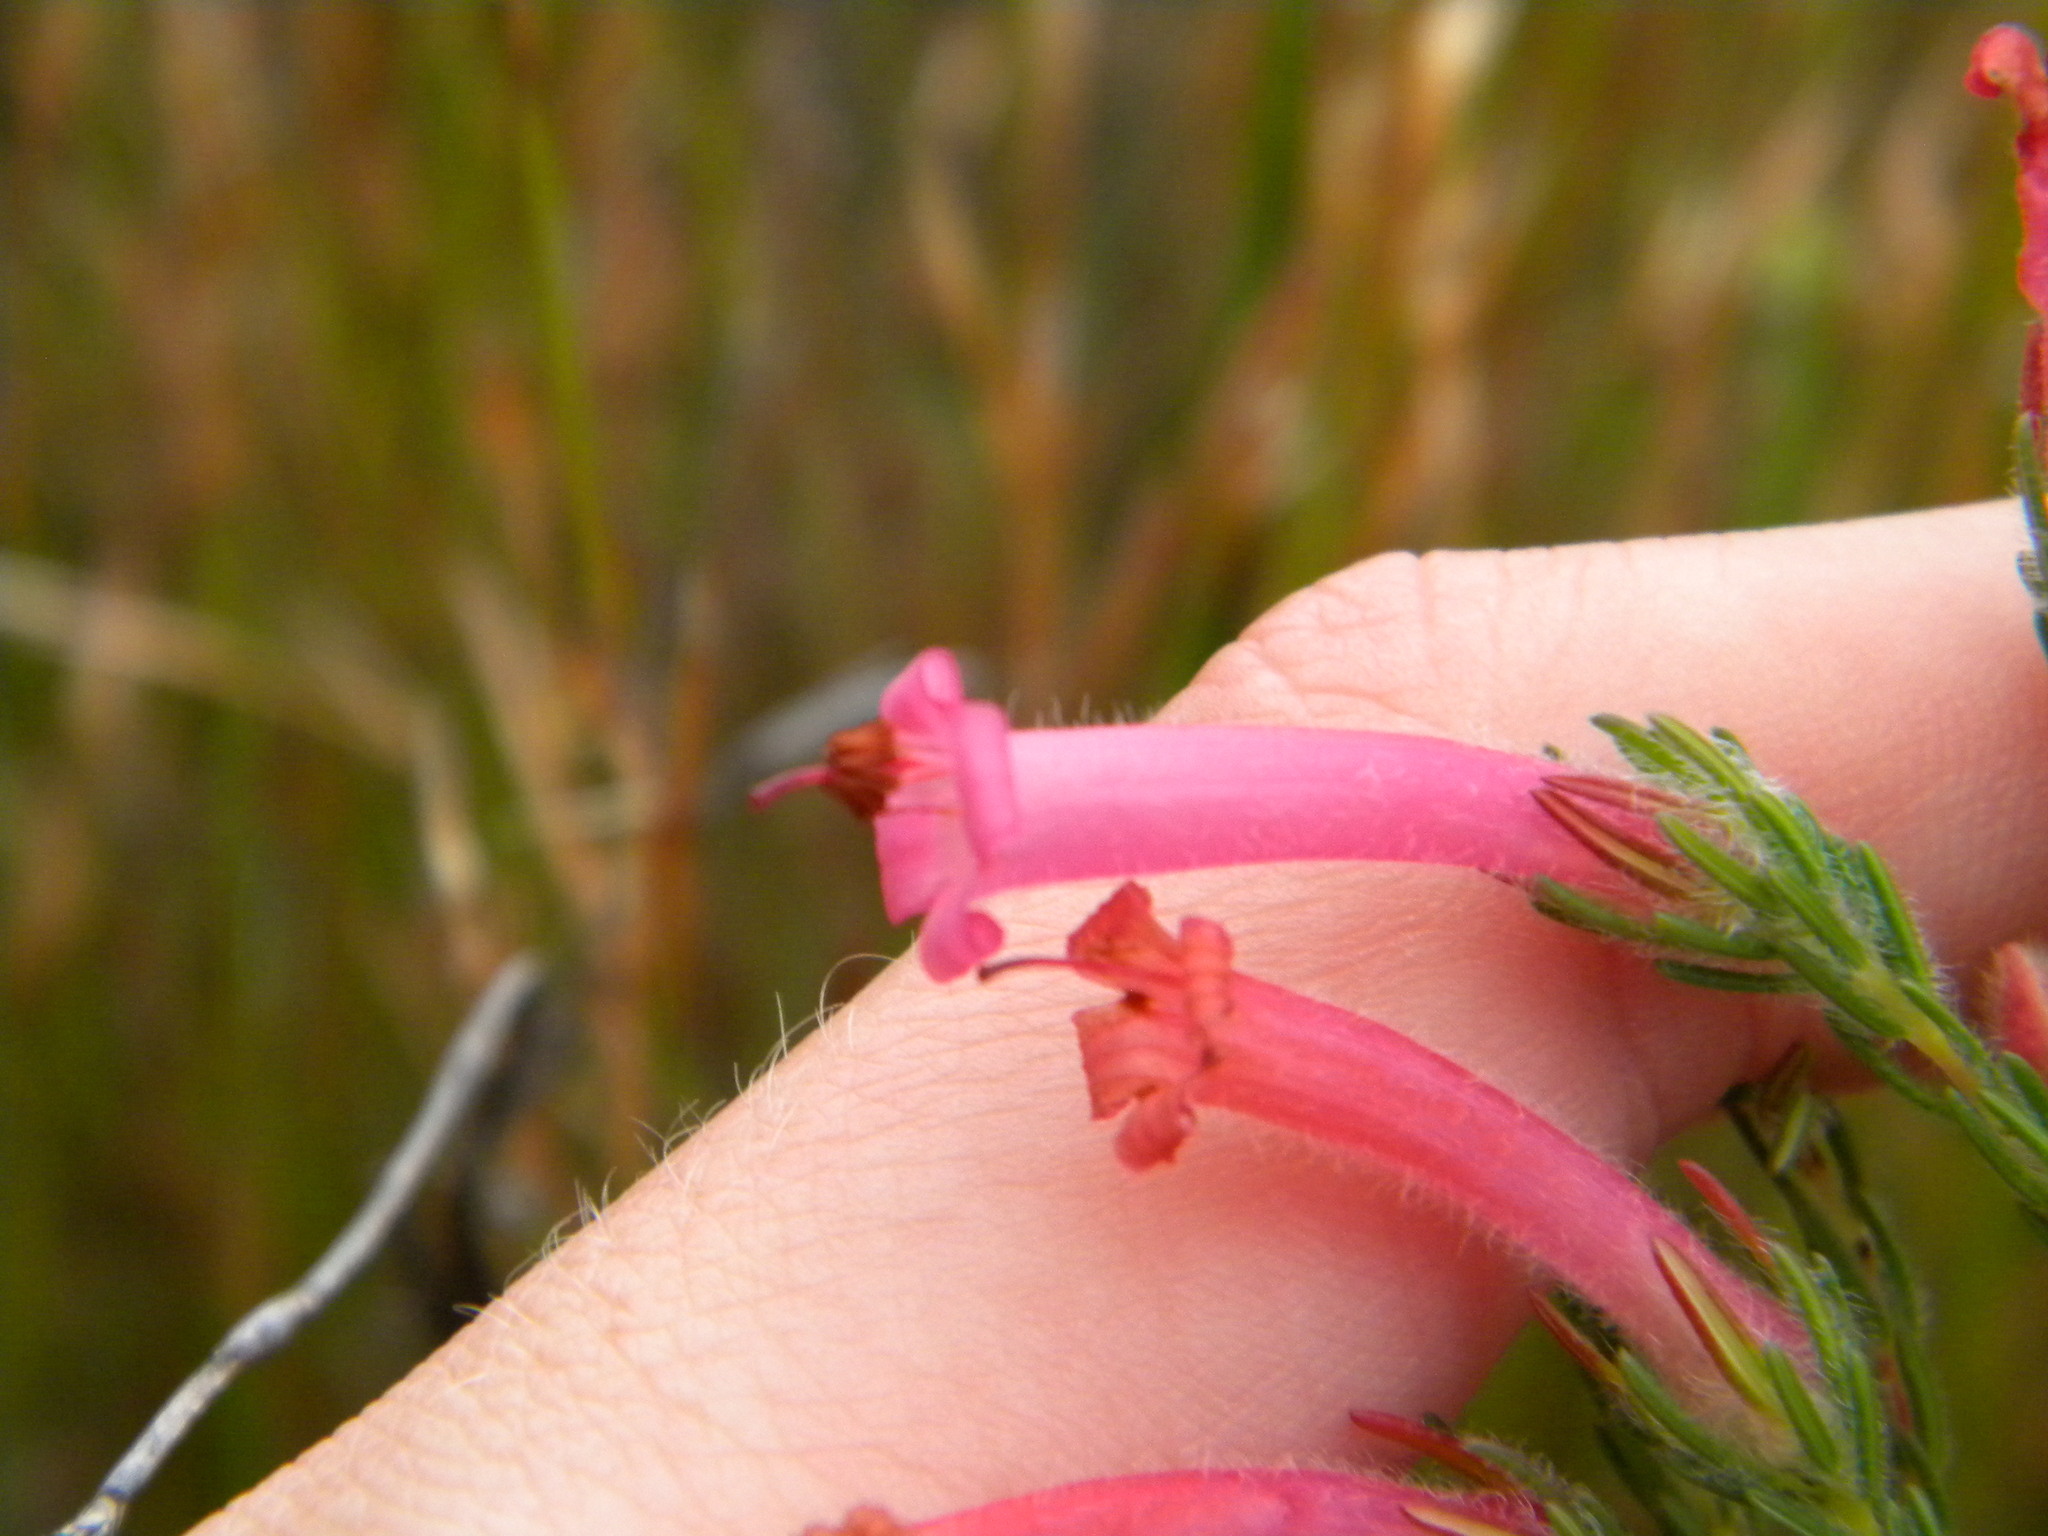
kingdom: Plantae
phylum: Tracheophyta
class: Magnoliopsida
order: Ericales
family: Ericaceae
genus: Erica
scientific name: Erica curviflora
